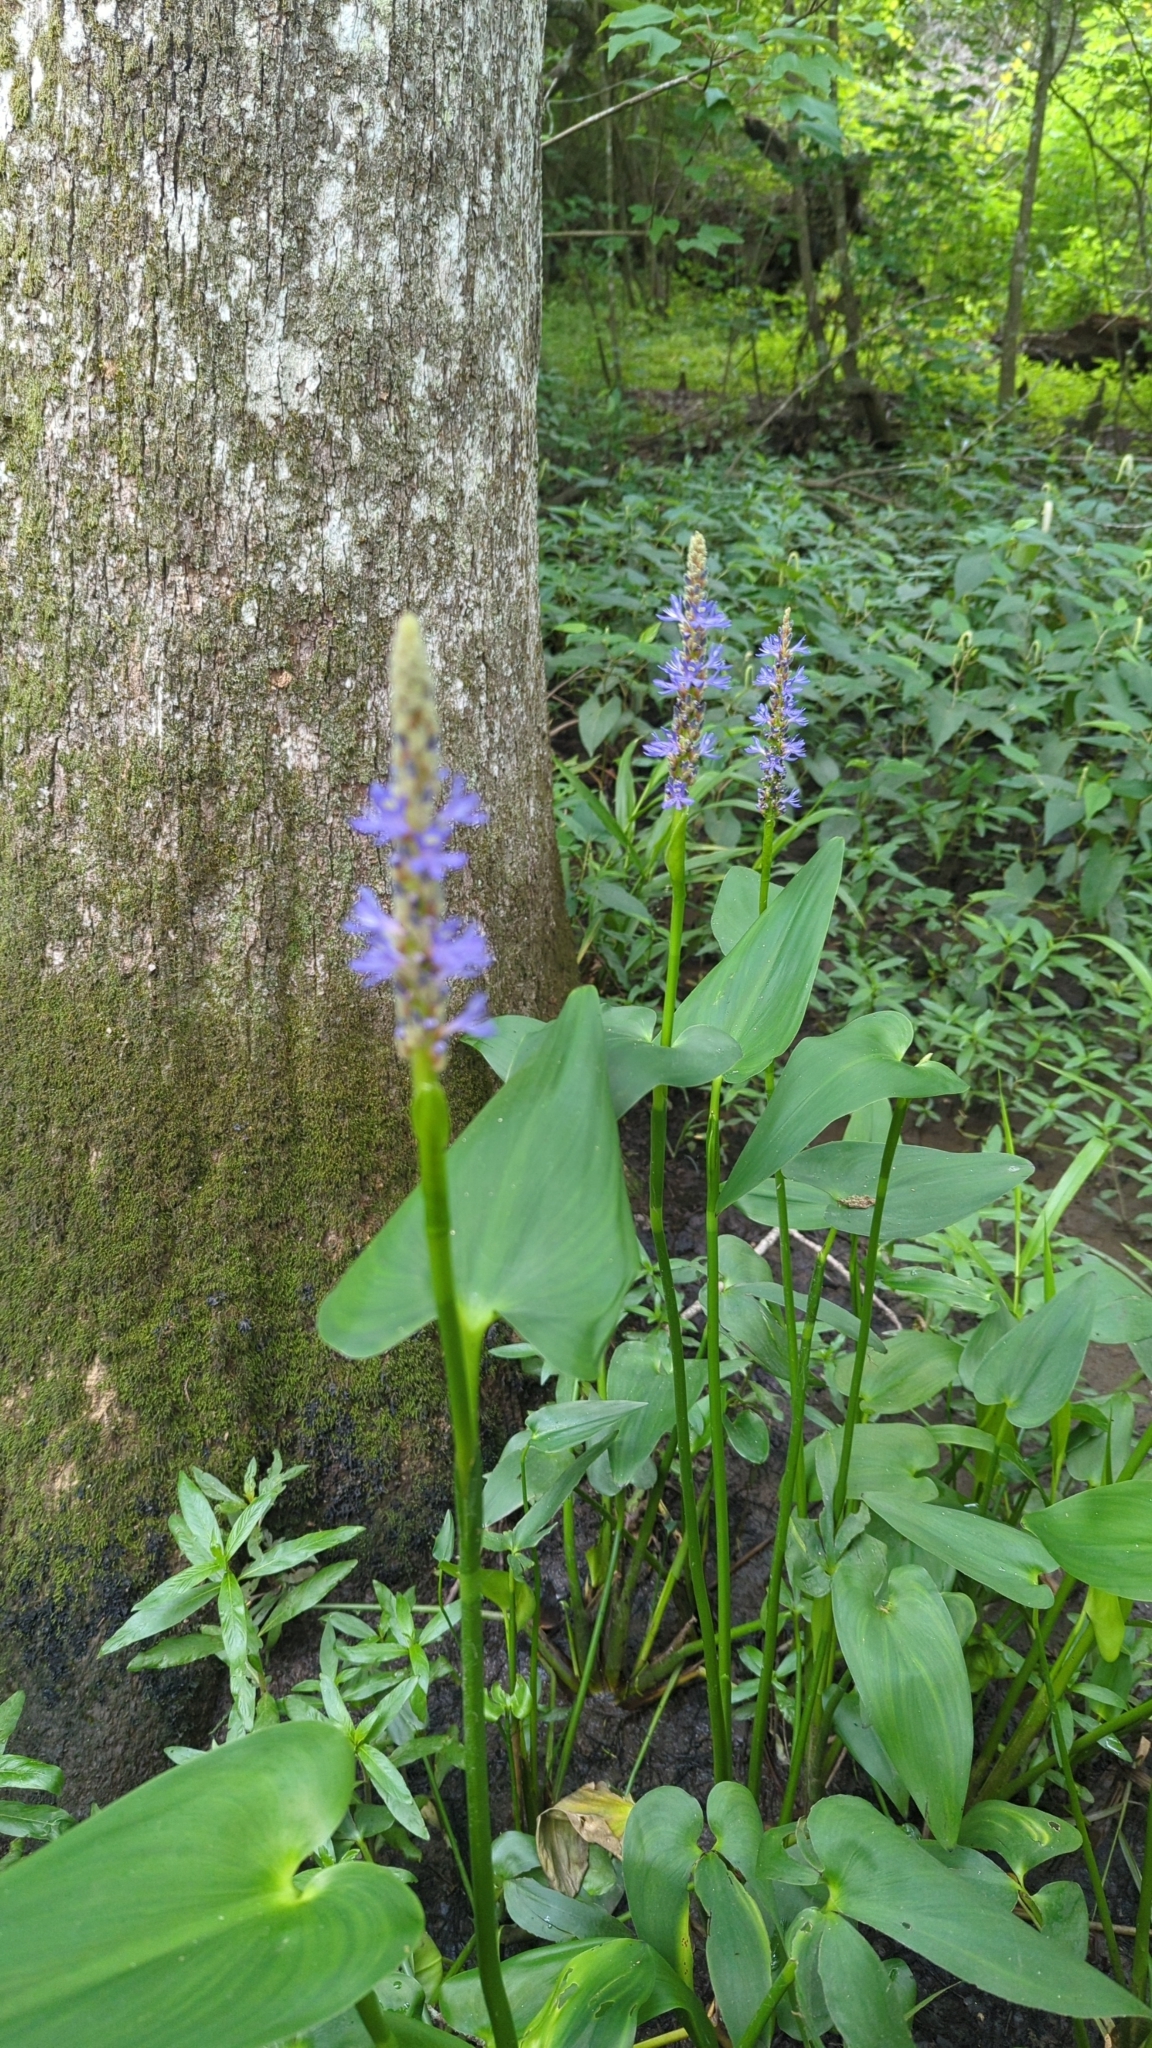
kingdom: Plantae
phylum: Tracheophyta
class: Liliopsida
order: Commelinales
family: Pontederiaceae
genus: Pontederia
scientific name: Pontederia cordata
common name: Pickerelweed
